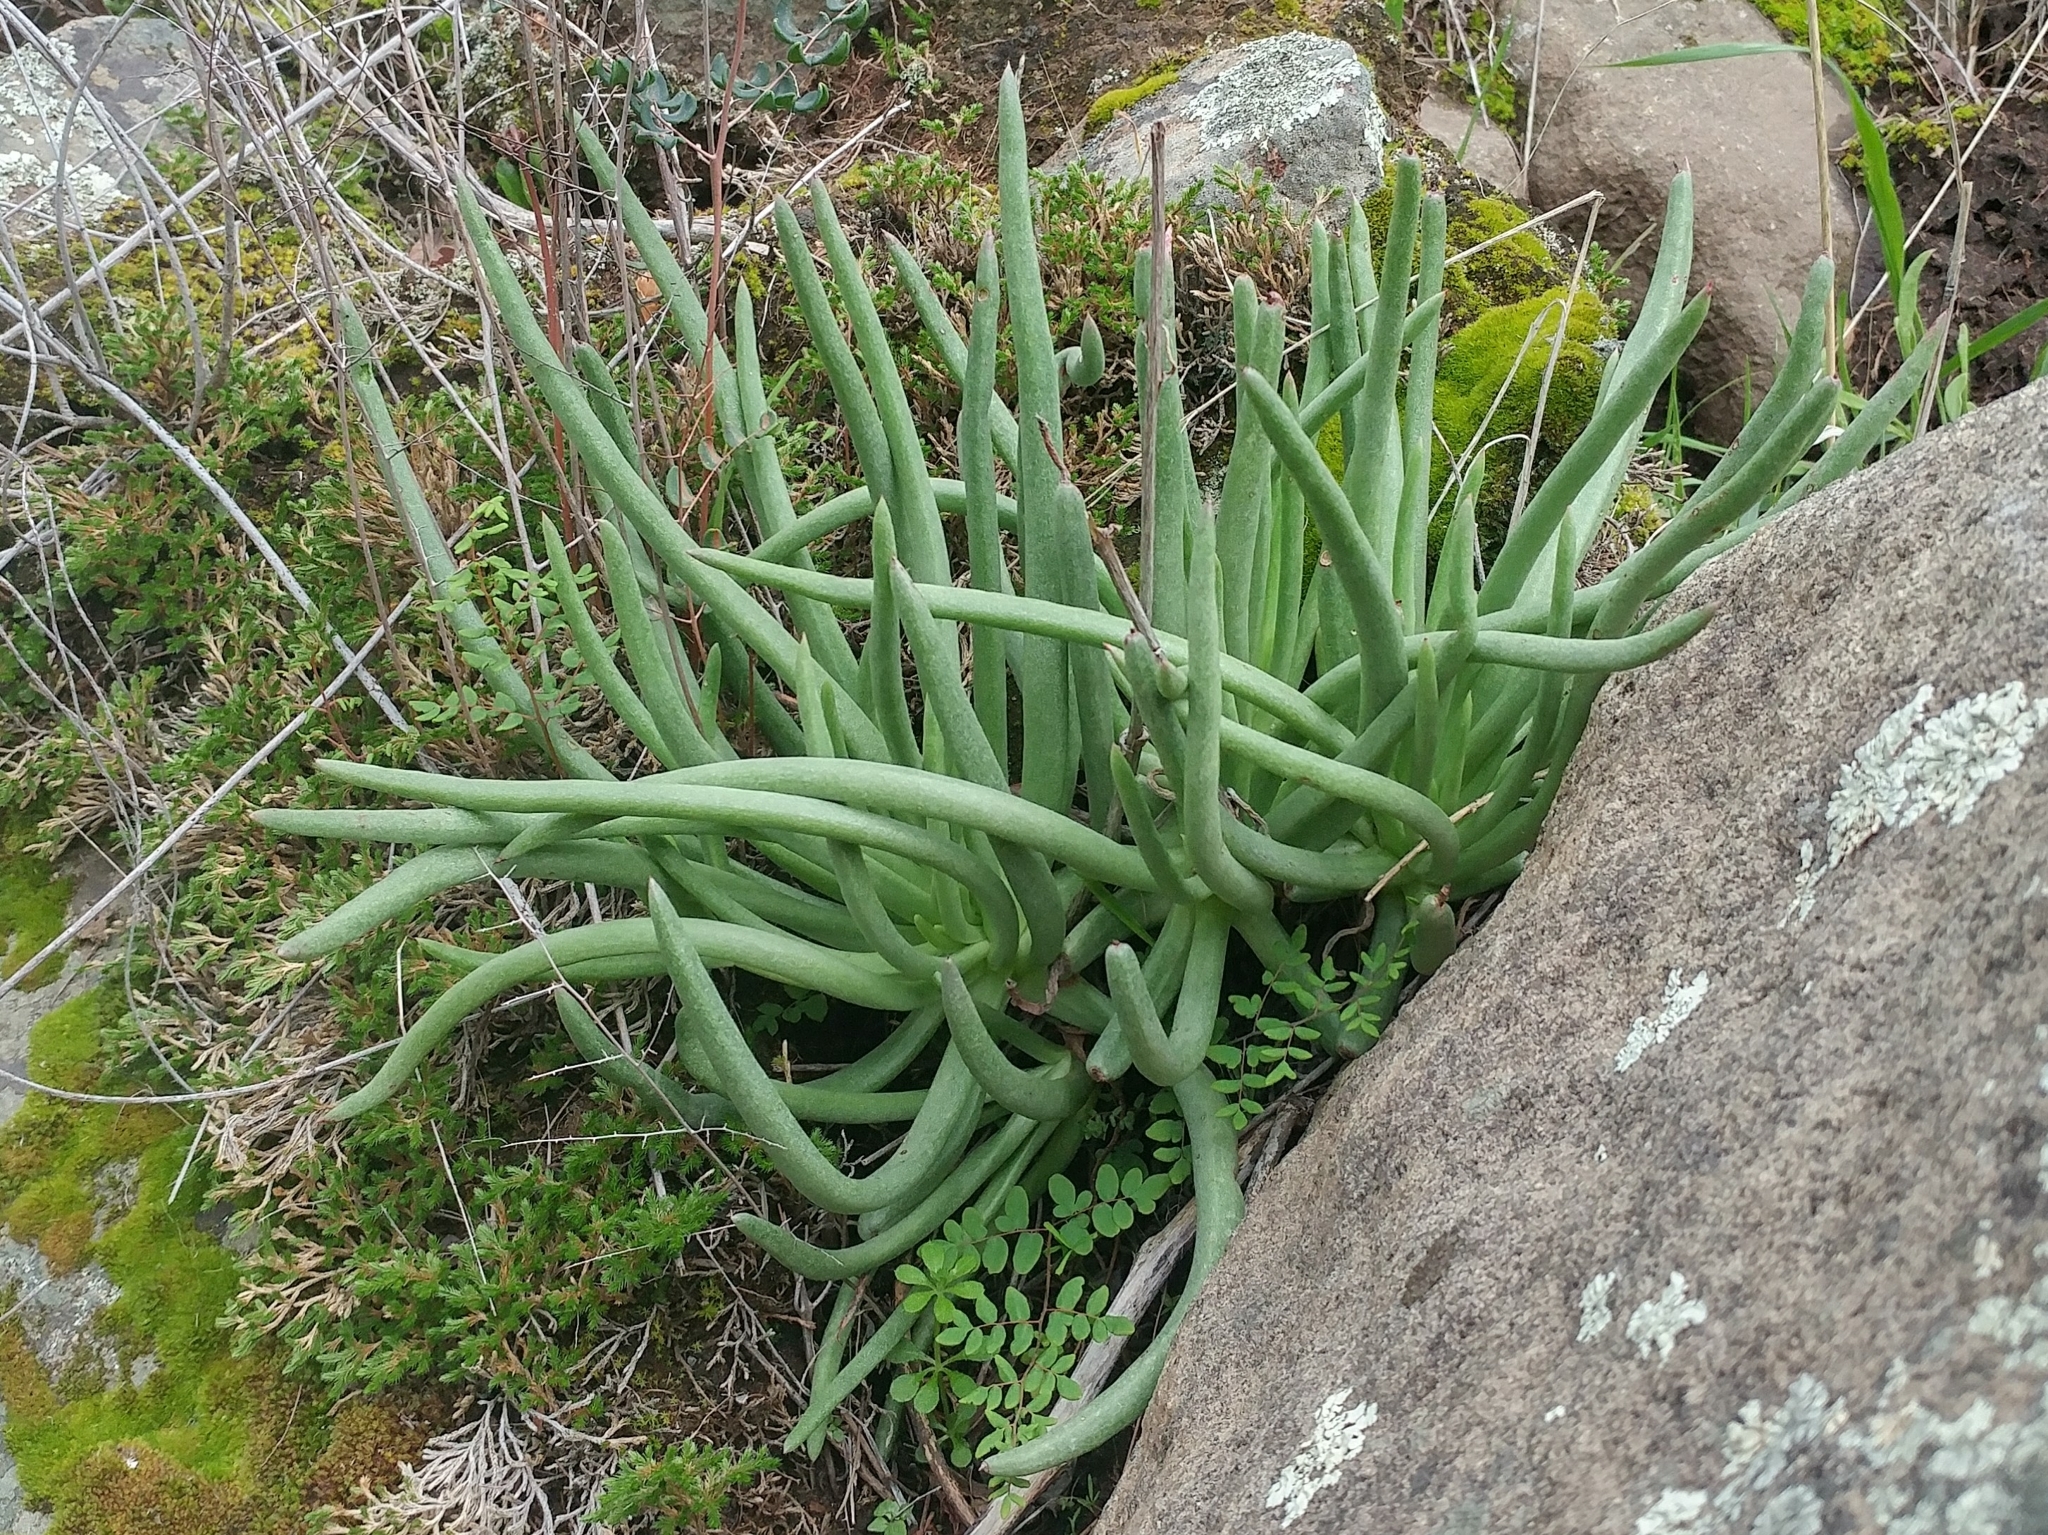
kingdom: Plantae
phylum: Tracheophyta
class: Magnoliopsida
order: Saxifragales
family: Crassulaceae
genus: Dudleya
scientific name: Dudleya edulis
